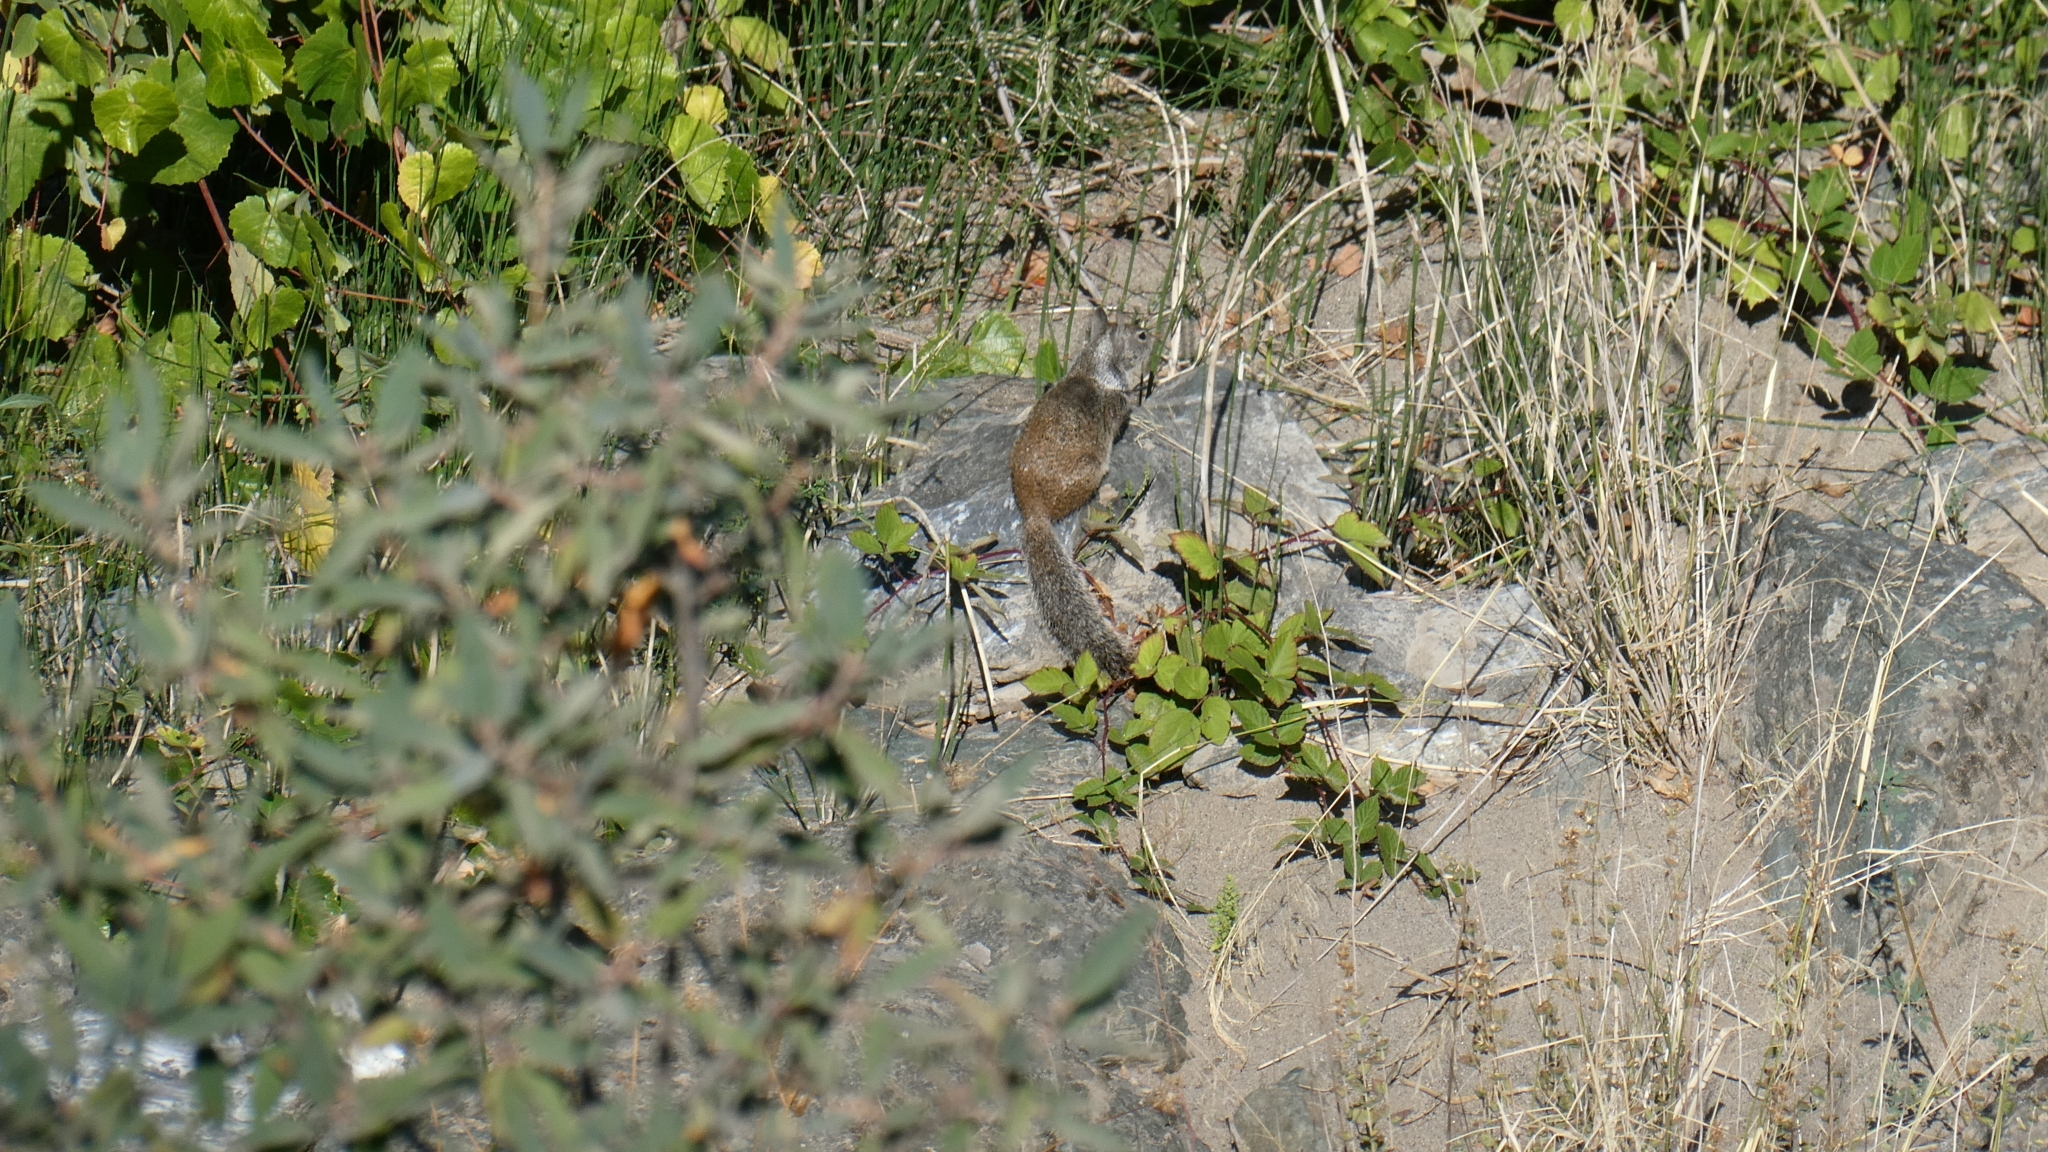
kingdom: Animalia
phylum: Chordata
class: Mammalia
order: Rodentia
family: Sciuridae
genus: Otospermophilus
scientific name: Otospermophilus beecheyi
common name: California ground squirrel
